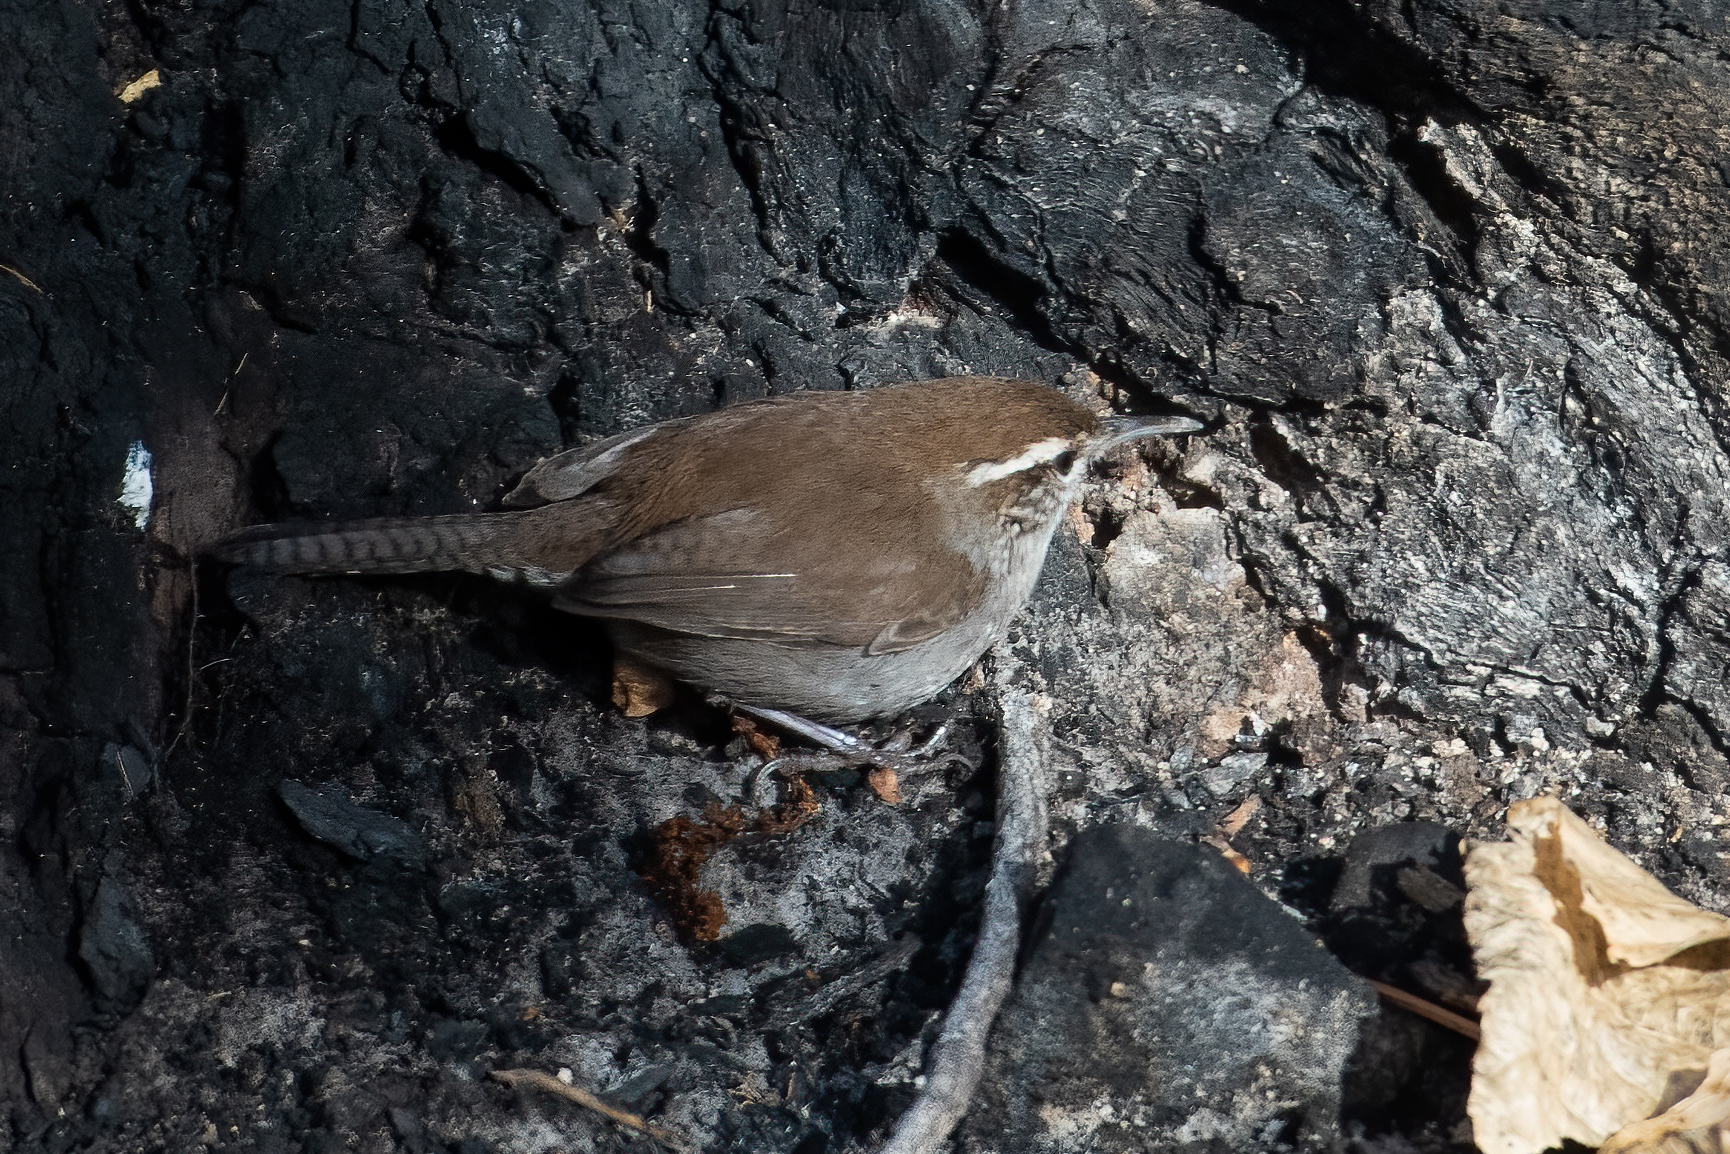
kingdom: Animalia
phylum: Chordata
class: Aves
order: Passeriformes
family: Troglodytidae
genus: Thryomanes
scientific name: Thryomanes bewickii
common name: Bewick's wren
